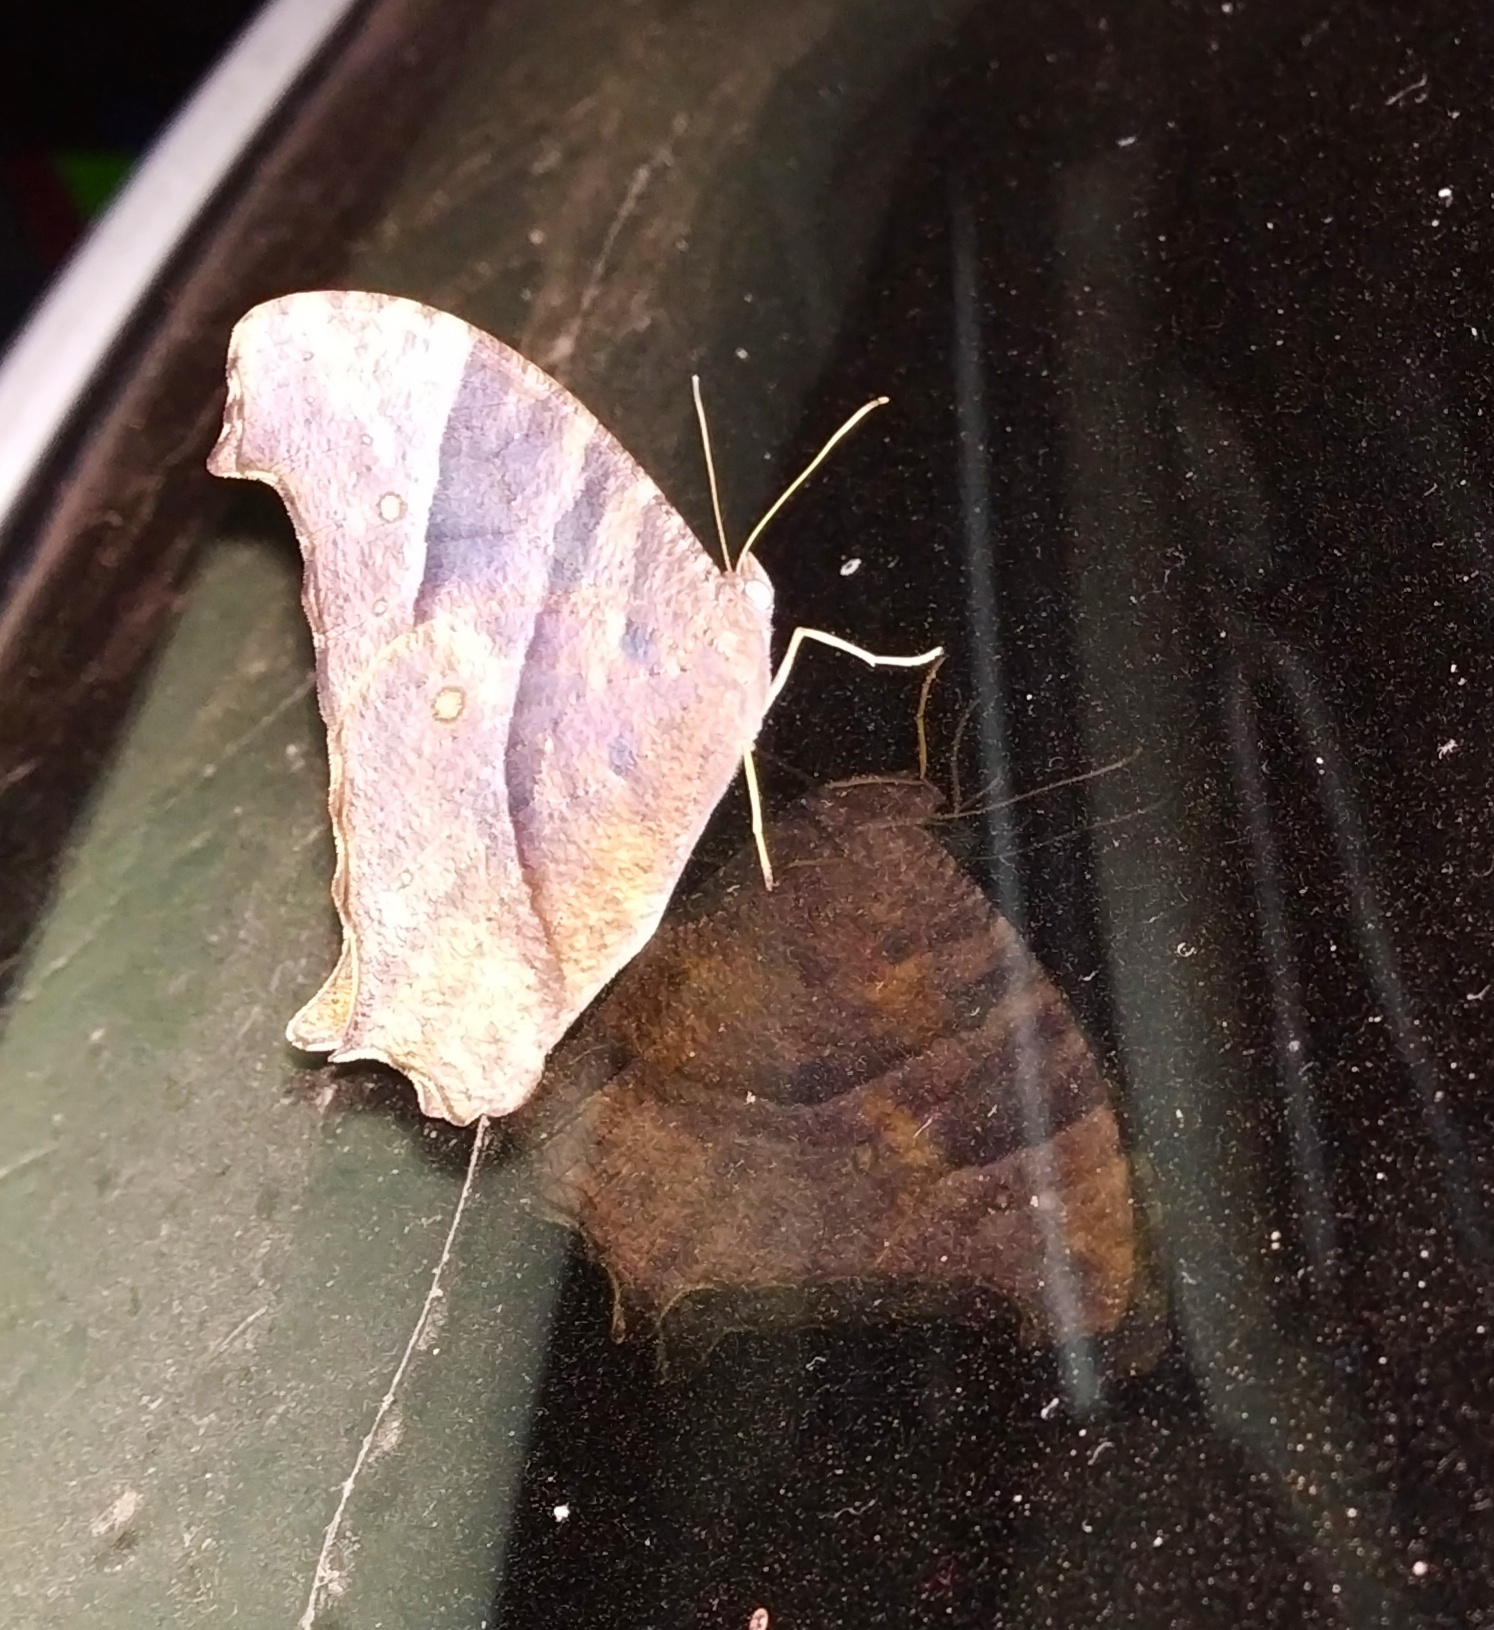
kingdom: Animalia
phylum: Arthropoda
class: Insecta
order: Lepidoptera
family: Nymphalidae
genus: Melanitis
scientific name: Melanitis leda
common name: Twilight brown
